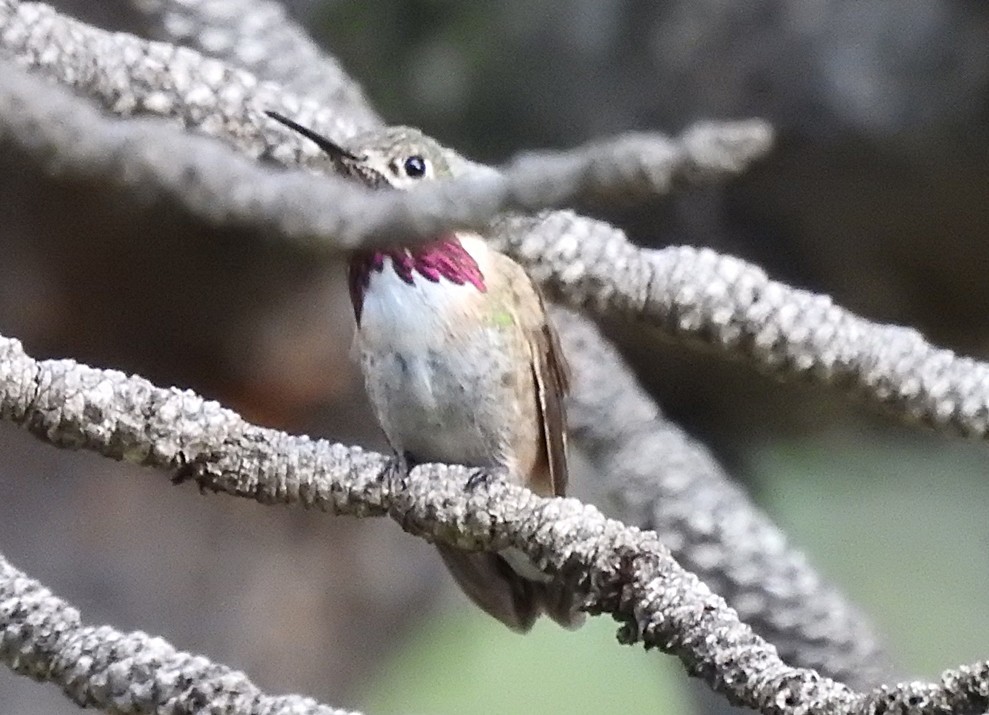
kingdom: Animalia
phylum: Chordata
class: Aves
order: Apodiformes
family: Trochilidae
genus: Selasphorus
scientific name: Selasphorus calliope
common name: Calliope hummingbird
